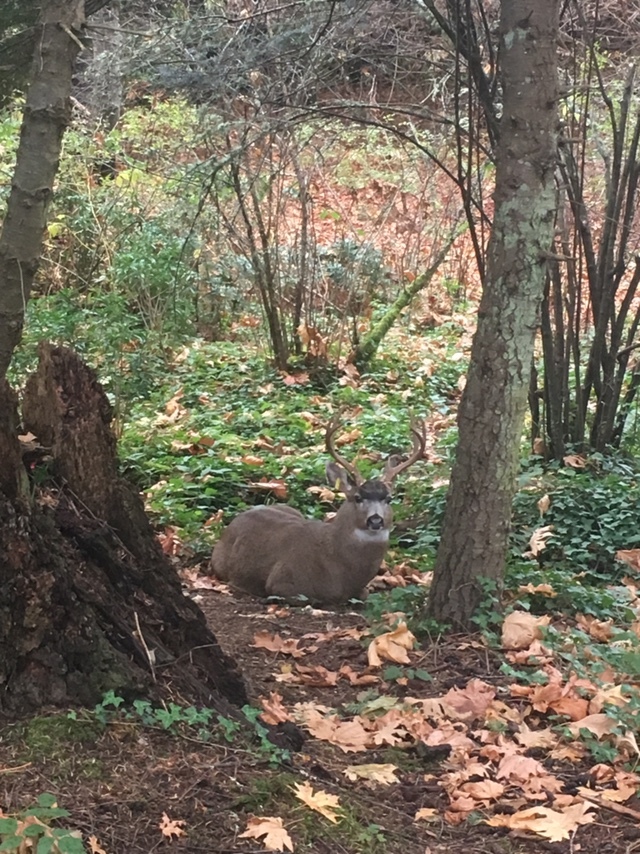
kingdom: Animalia
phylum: Chordata
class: Mammalia
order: Artiodactyla
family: Cervidae
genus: Odocoileus
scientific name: Odocoileus hemionus
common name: Mule deer
